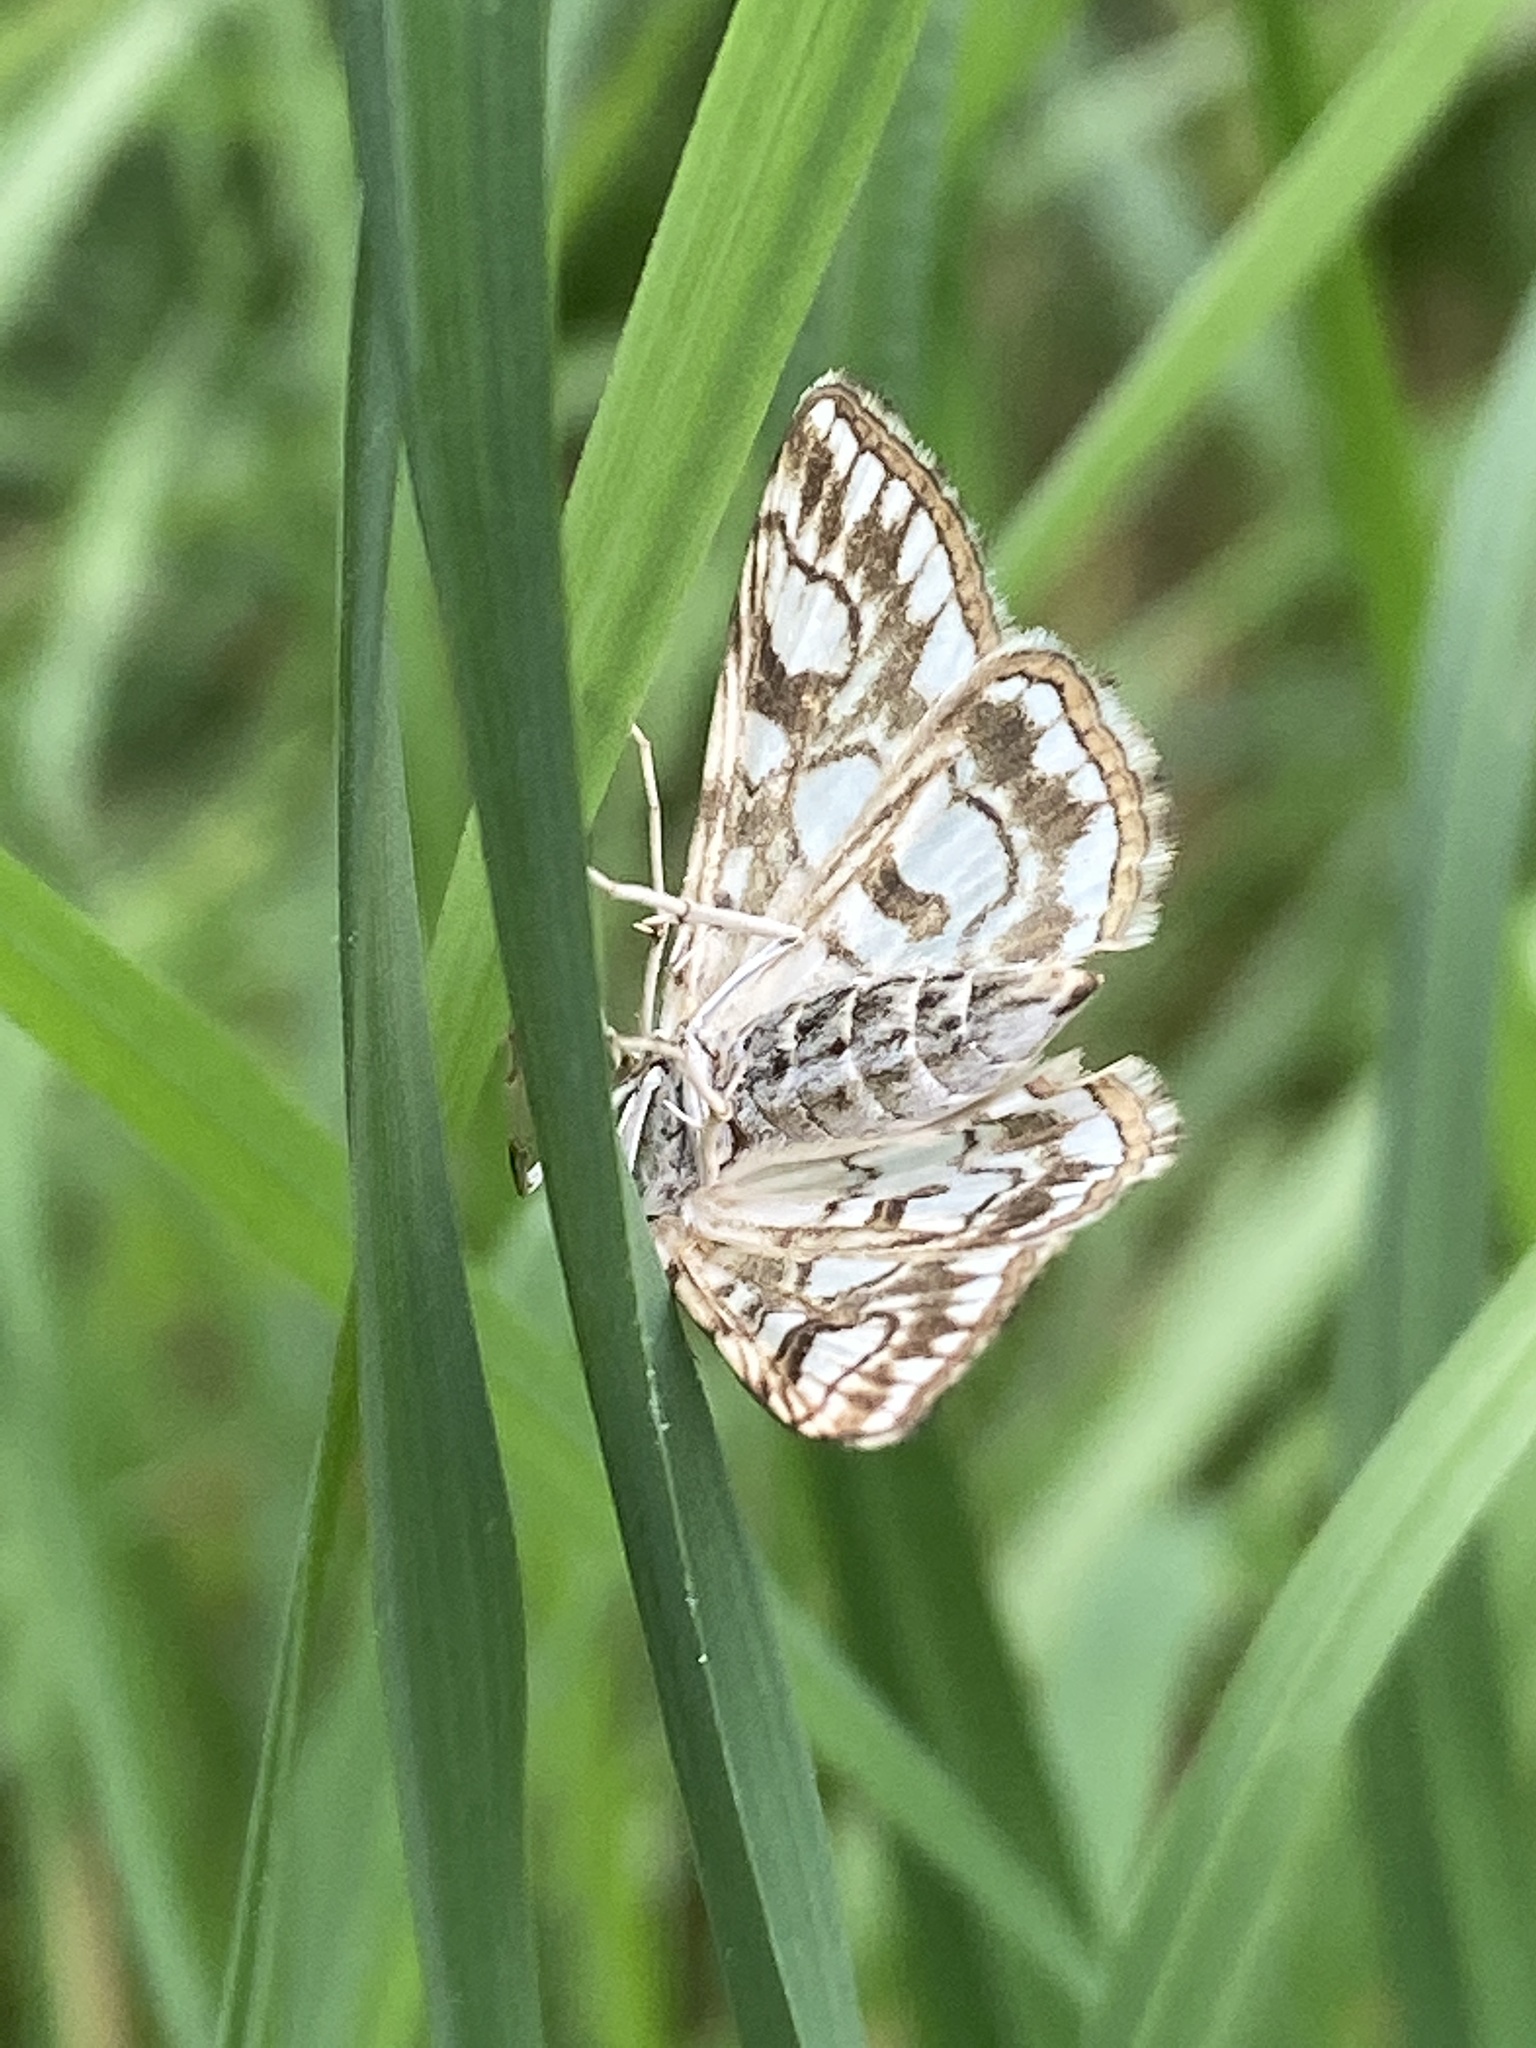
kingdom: Animalia
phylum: Arthropoda
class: Insecta
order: Lepidoptera
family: Crambidae
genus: Elophila
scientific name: Elophila nymphaeata
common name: Brown china-mark
